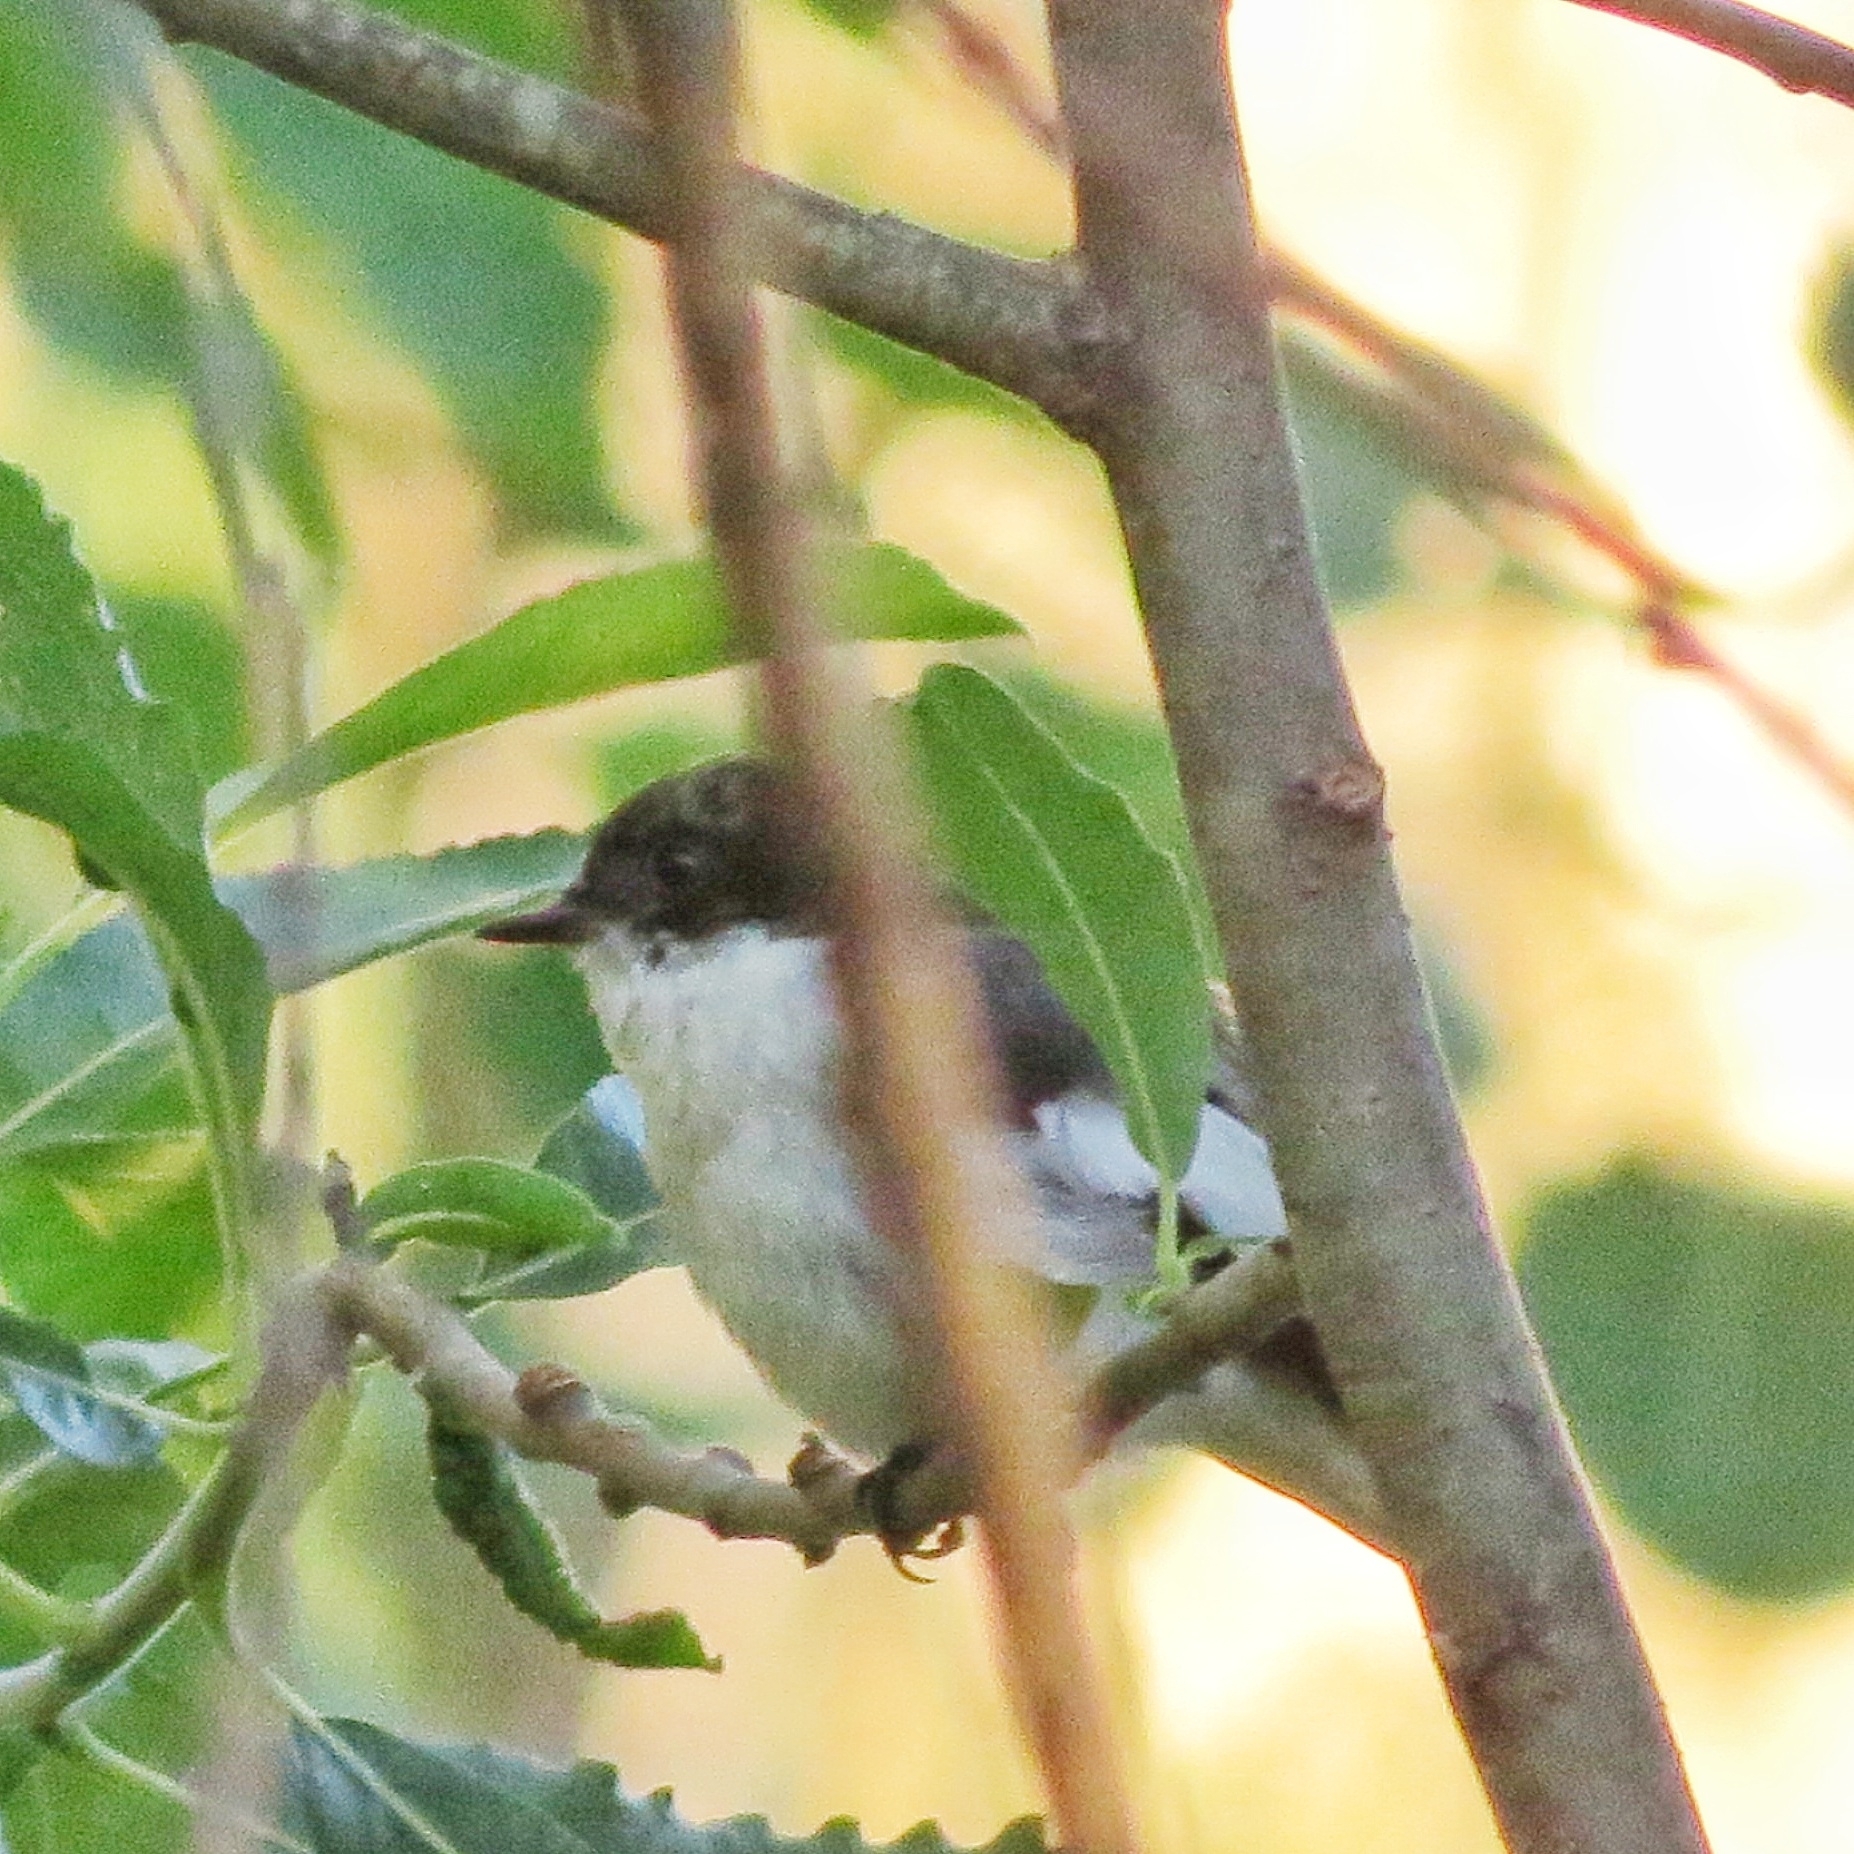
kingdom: Animalia
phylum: Chordata
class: Aves
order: Passeriformes
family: Muscicapidae
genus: Ficedula
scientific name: Ficedula hypoleuca
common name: European pied flycatcher
